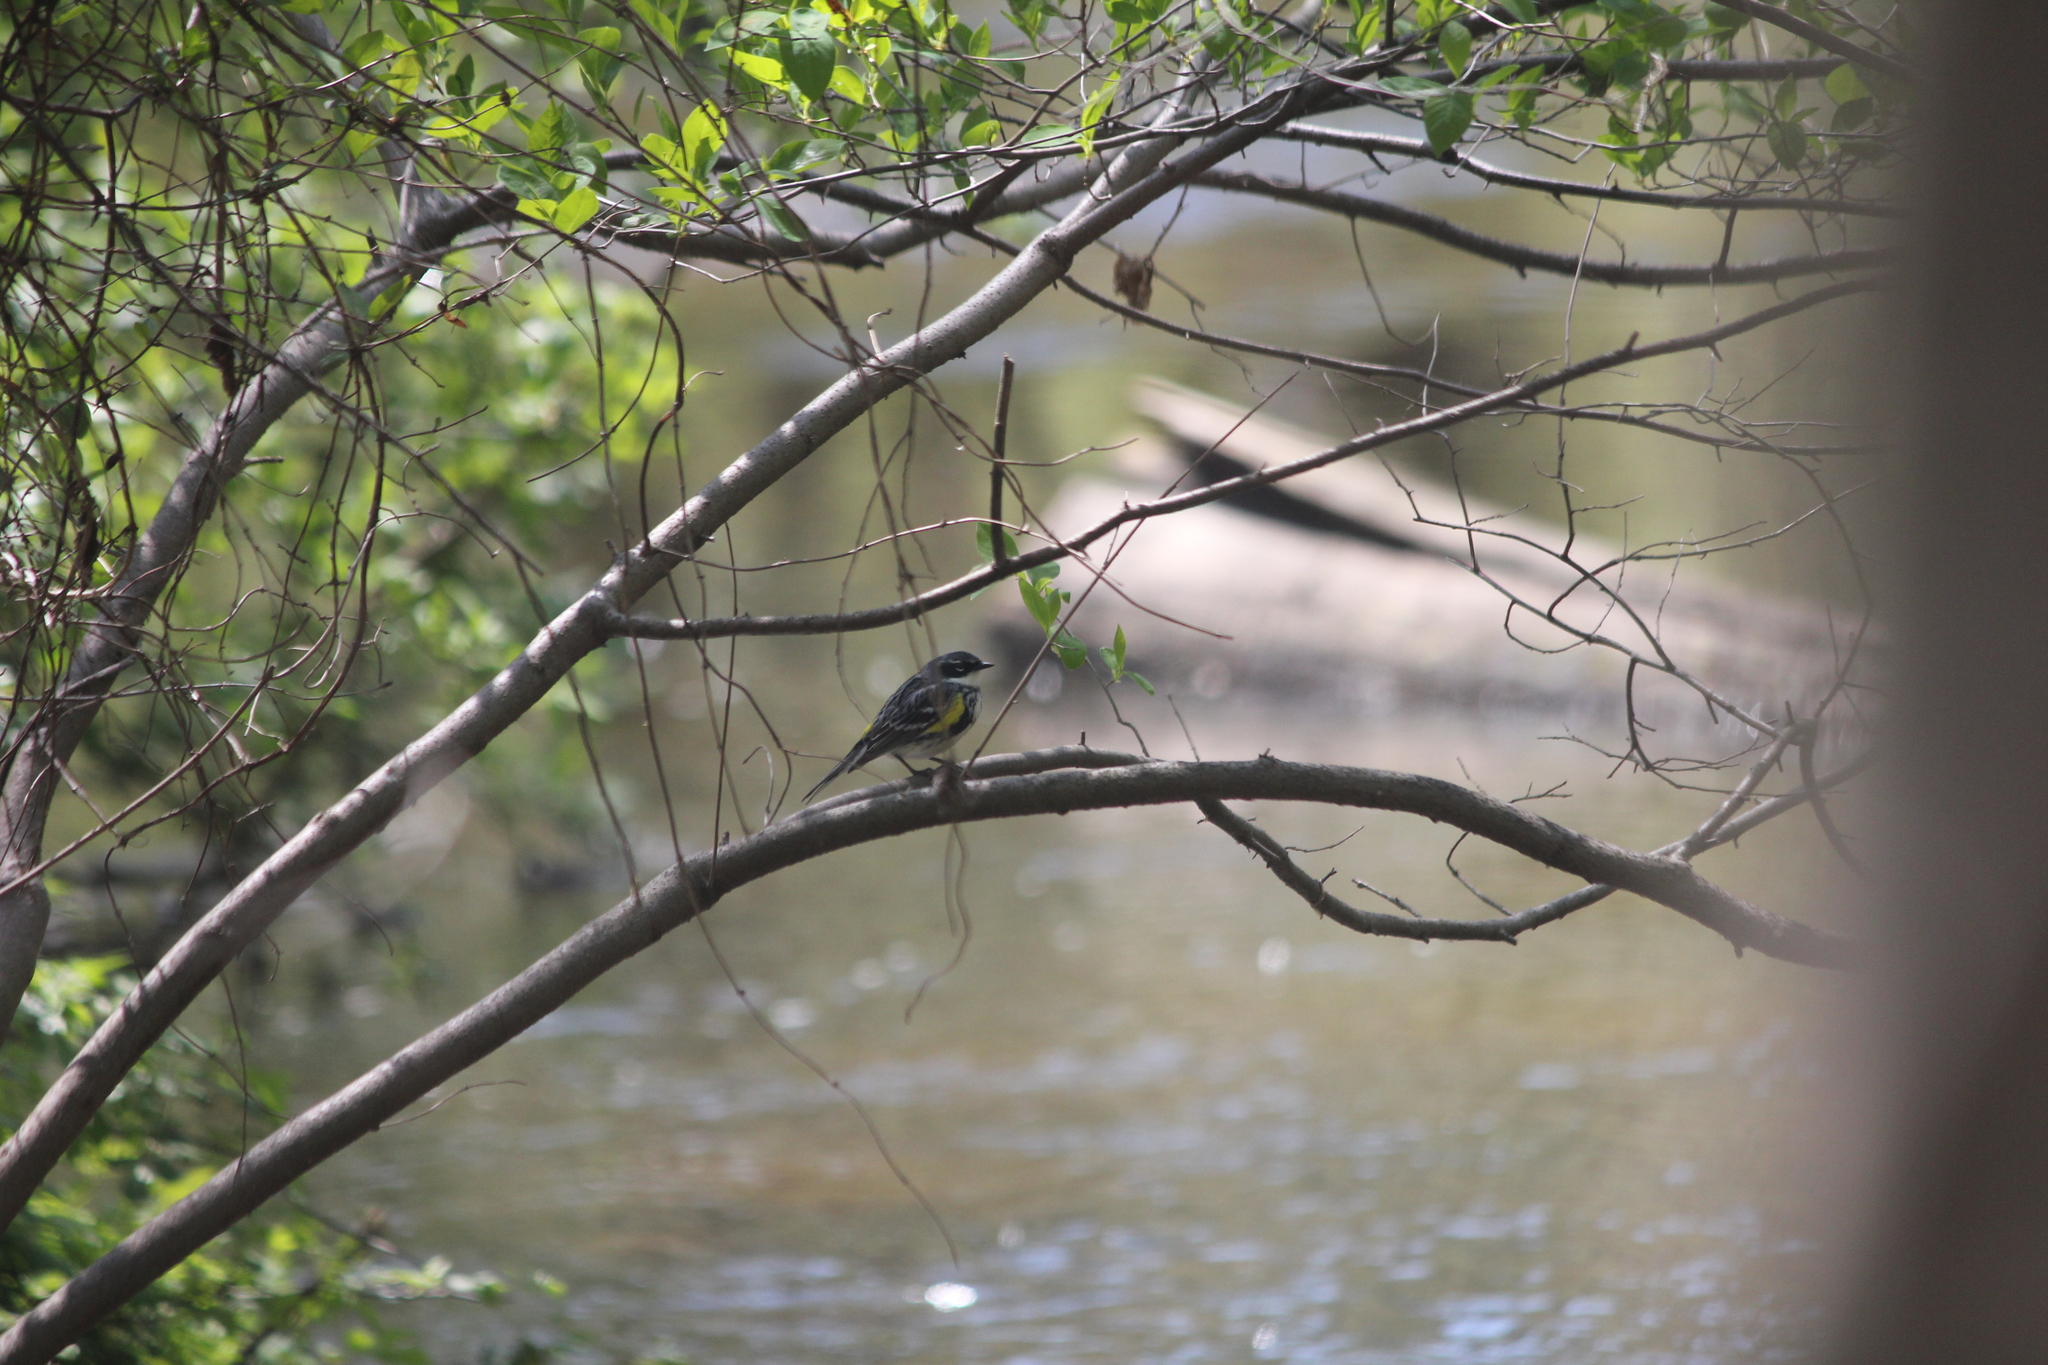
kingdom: Animalia
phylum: Chordata
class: Aves
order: Passeriformes
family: Parulidae
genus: Setophaga
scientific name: Setophaga coronata
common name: Myrtle warbler
